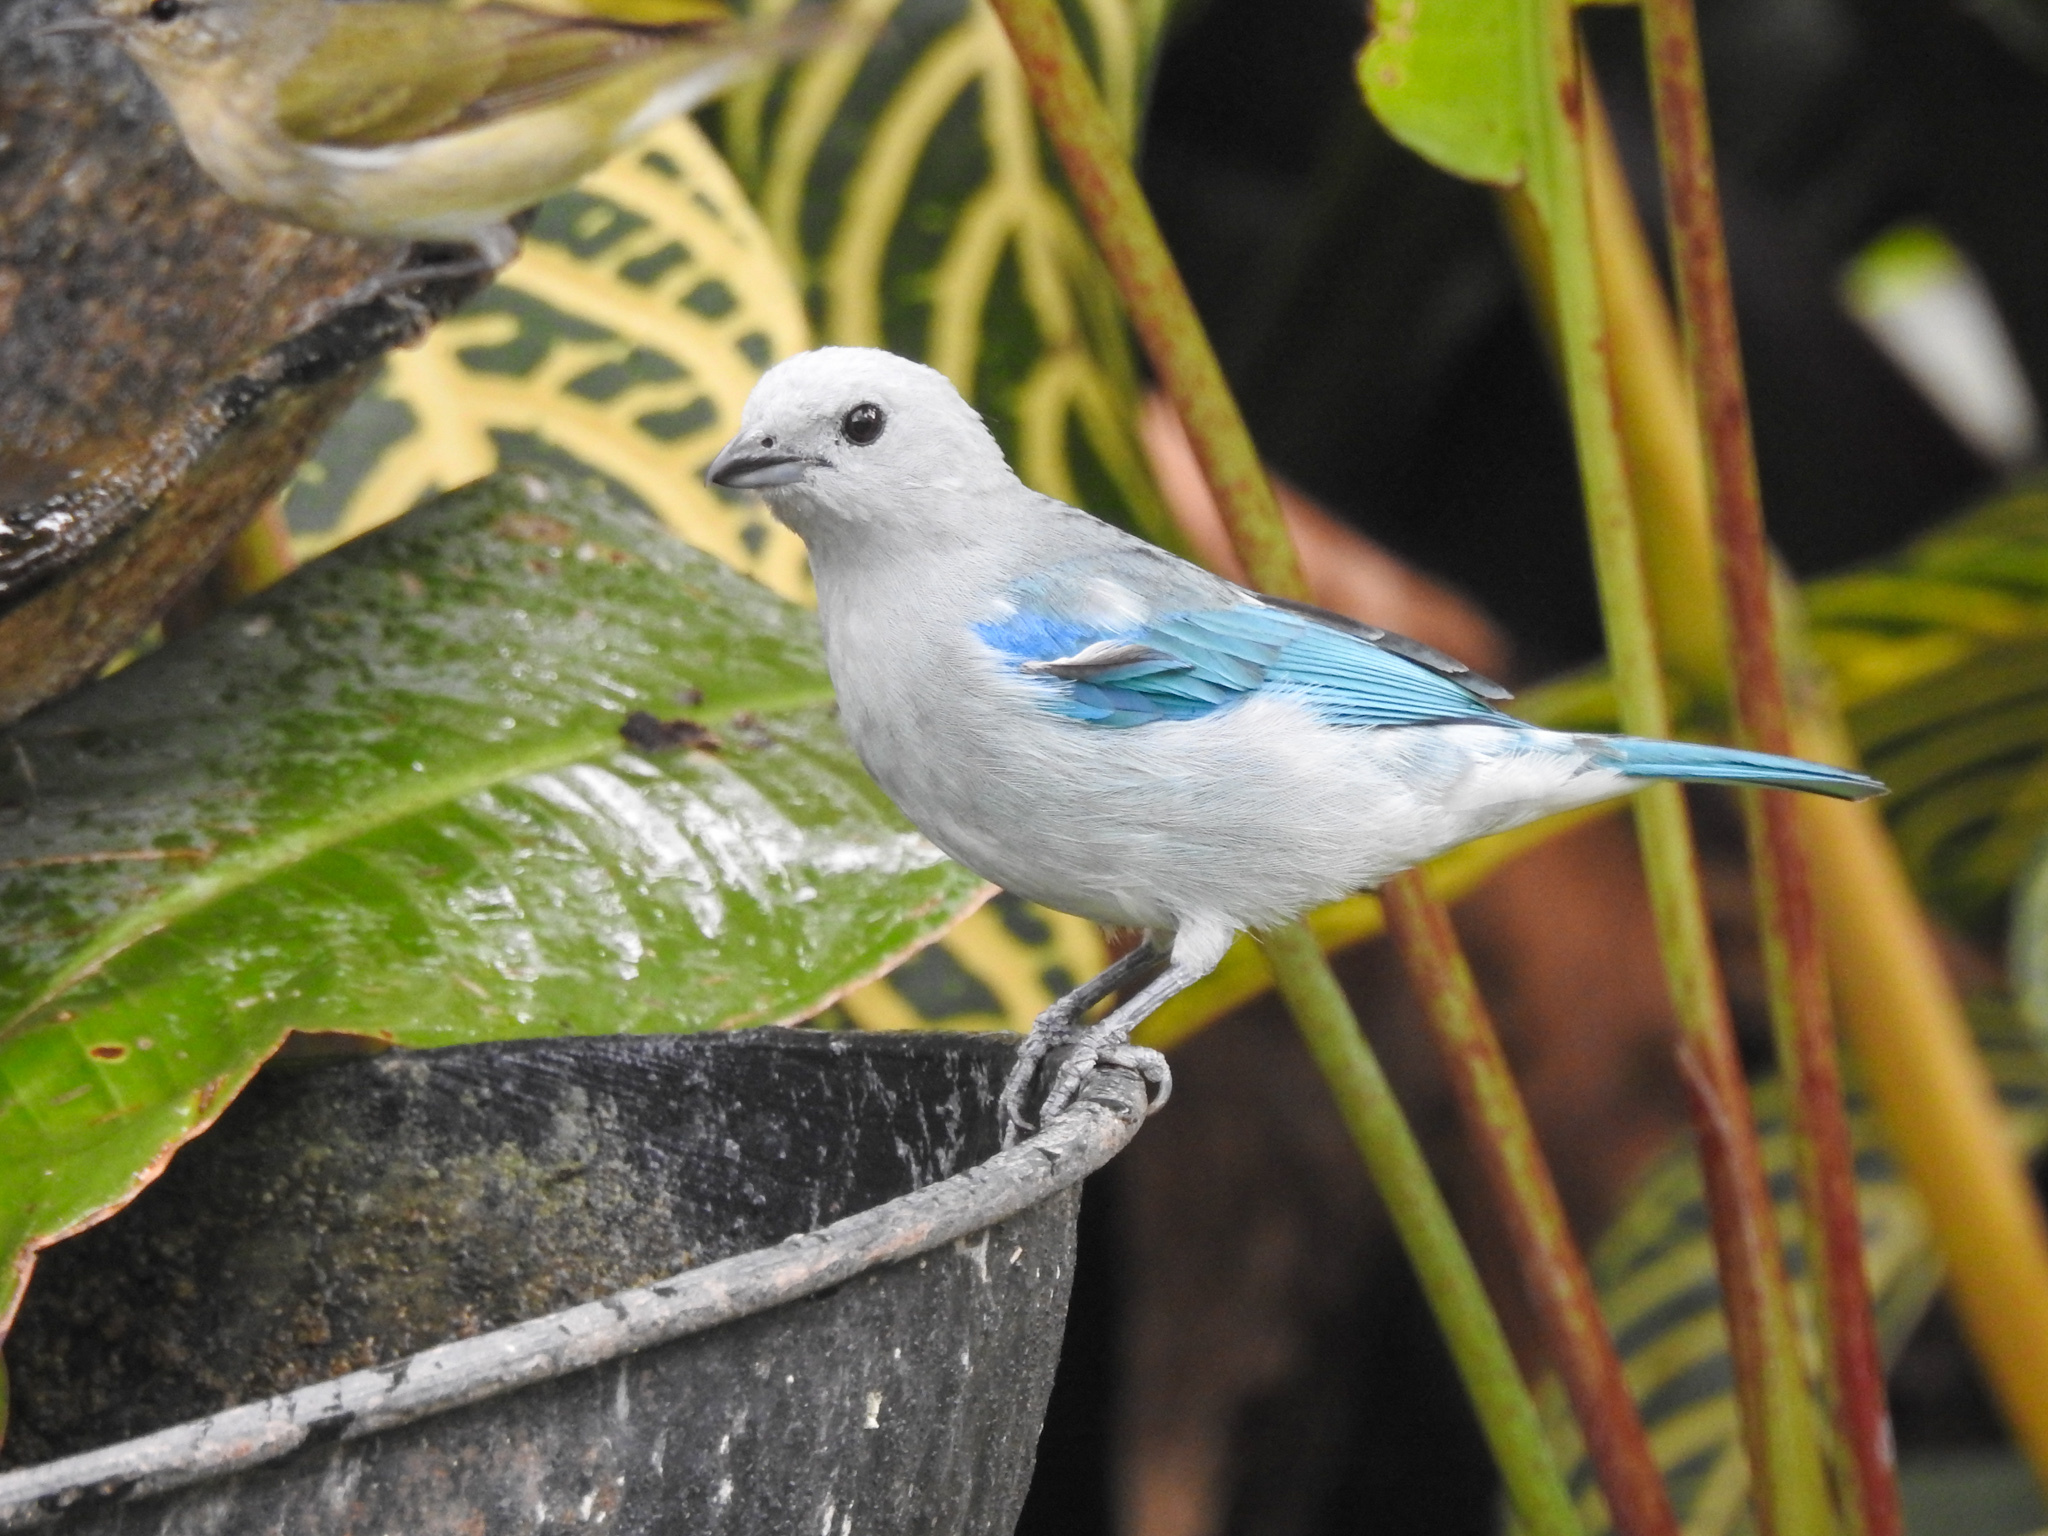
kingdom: Animalia
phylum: Chordata
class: Aves
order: Passeriformes
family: Thraupidae
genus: Thraupis
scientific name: Thraupis episcopus
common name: Blue-grey tanager
